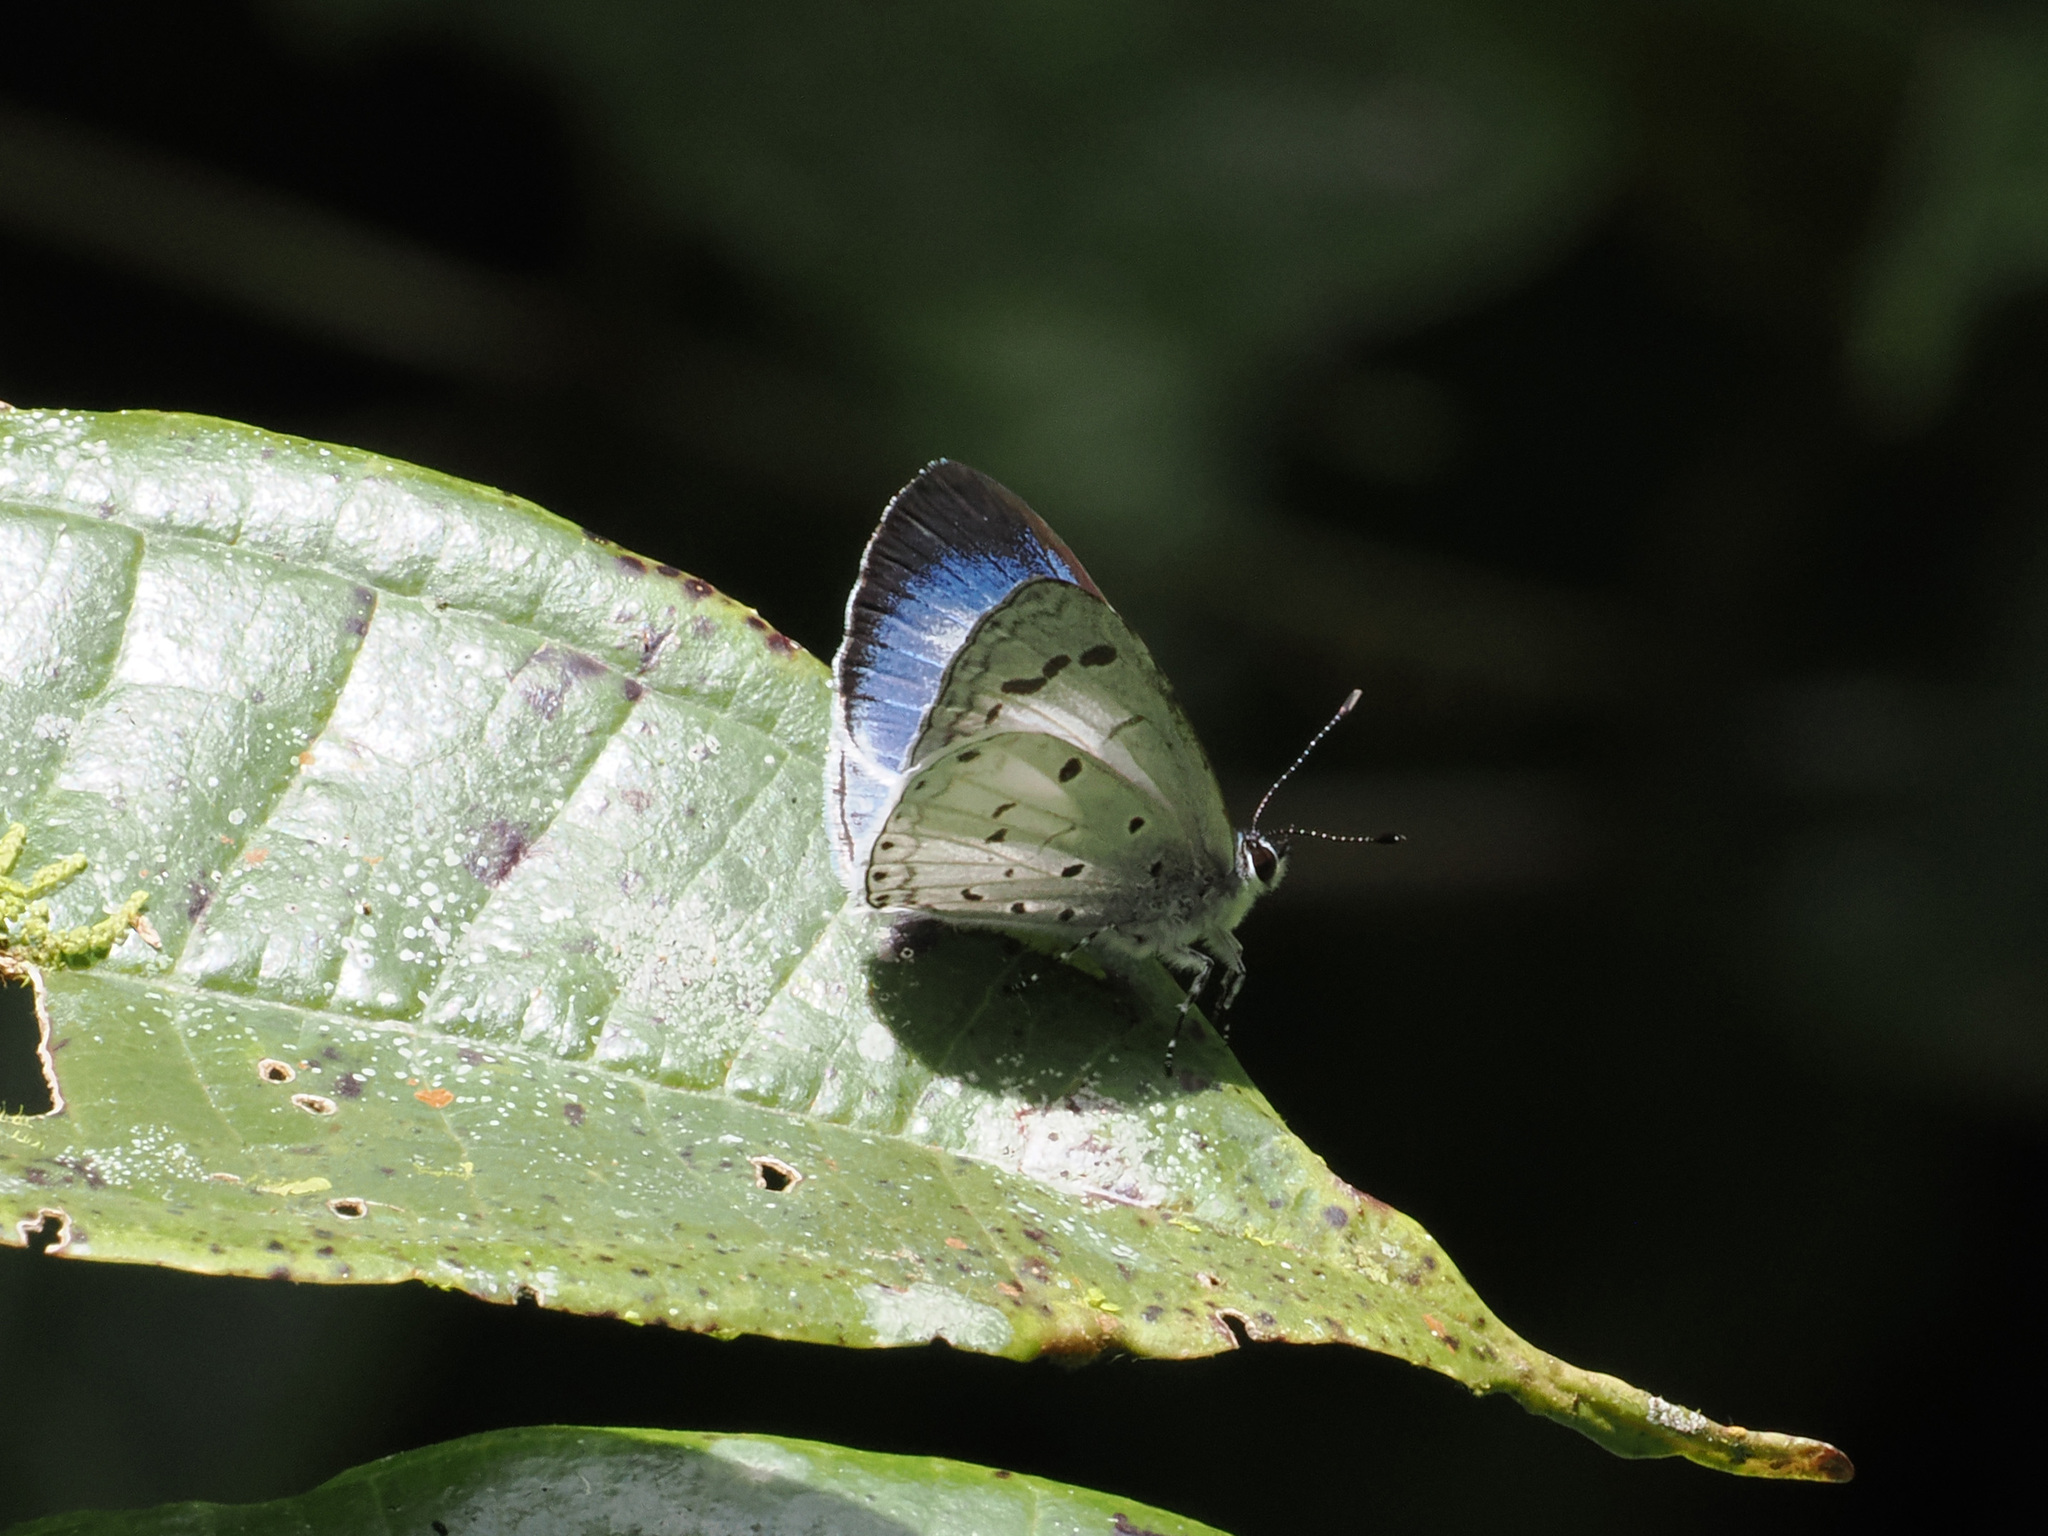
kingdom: Animalia
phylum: Arthropoda
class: Insecta
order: Lepidoptera
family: Lycaenidae
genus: Celatoxia
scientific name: Celatoxia
